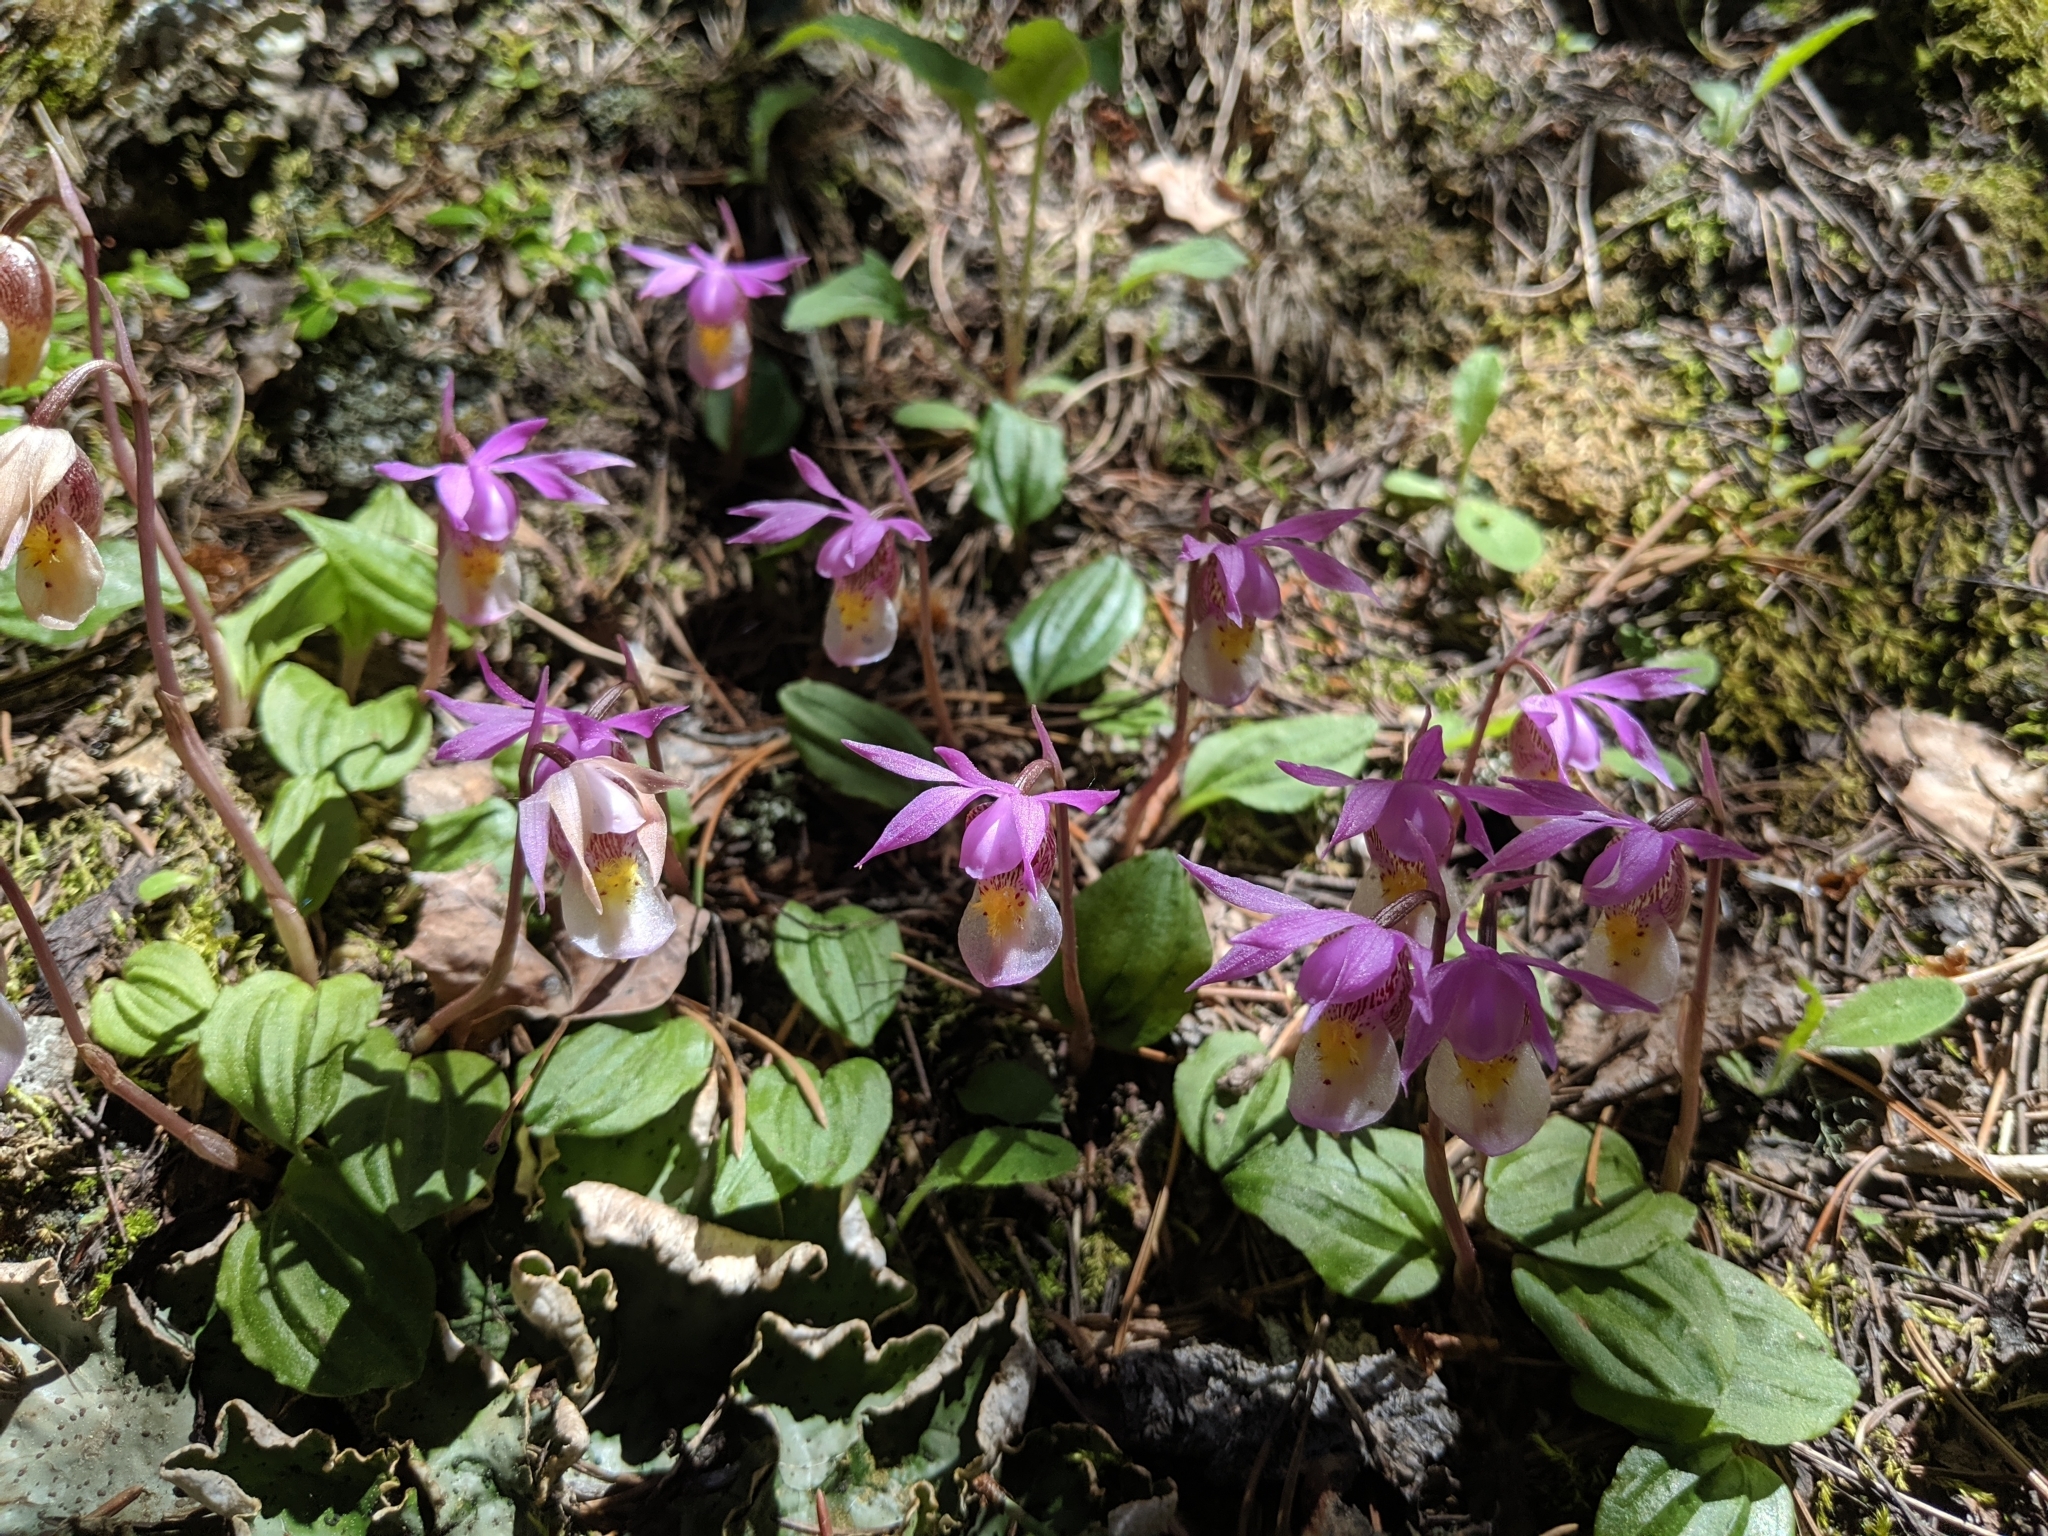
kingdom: Plantae
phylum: Tracheophyta
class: Liliopsida
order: Asparagales
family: Orchidaceae
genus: Calypso
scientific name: Calypso bulbosa
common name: Calypso
